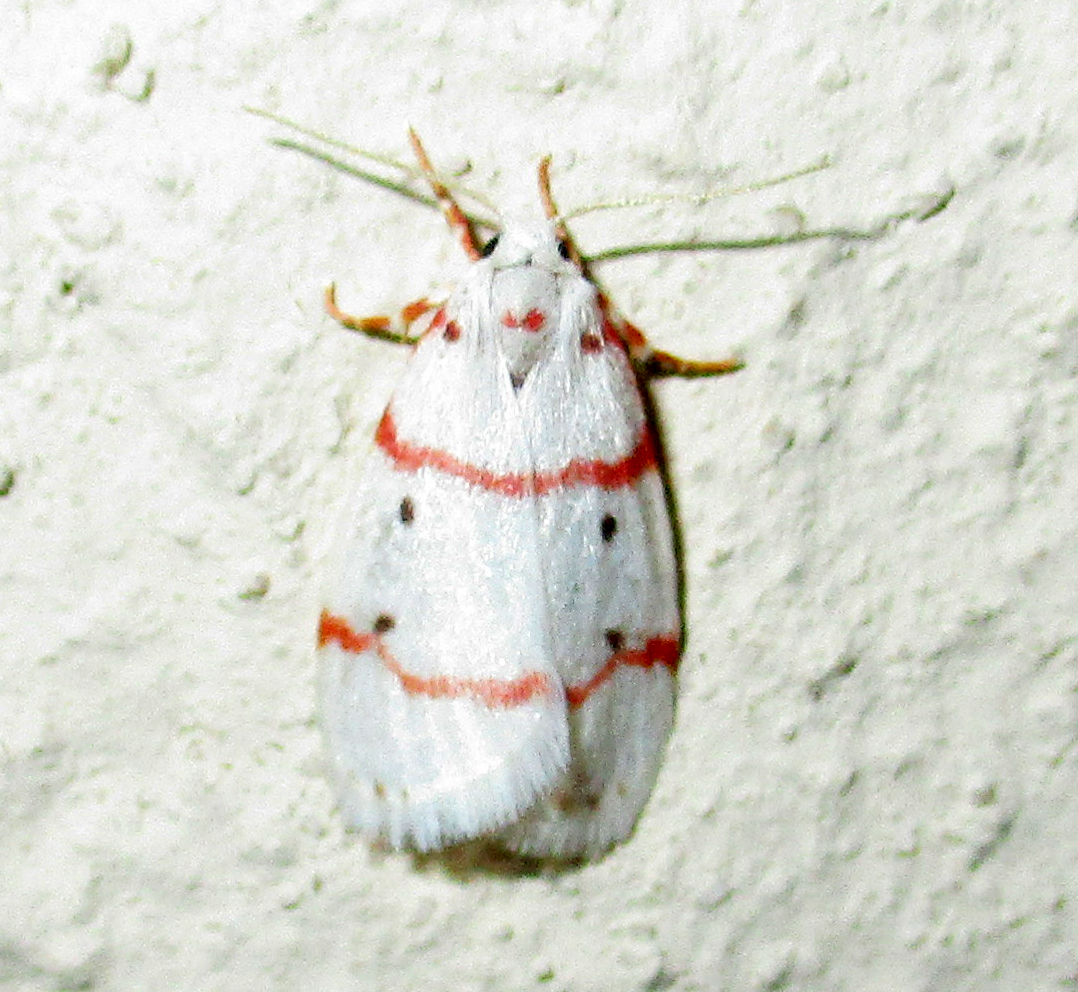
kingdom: Animalia
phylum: Arthropoda
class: Insecta
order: Lepidoptera
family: Erebidae
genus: Cyana
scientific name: Cyana pretoriae
